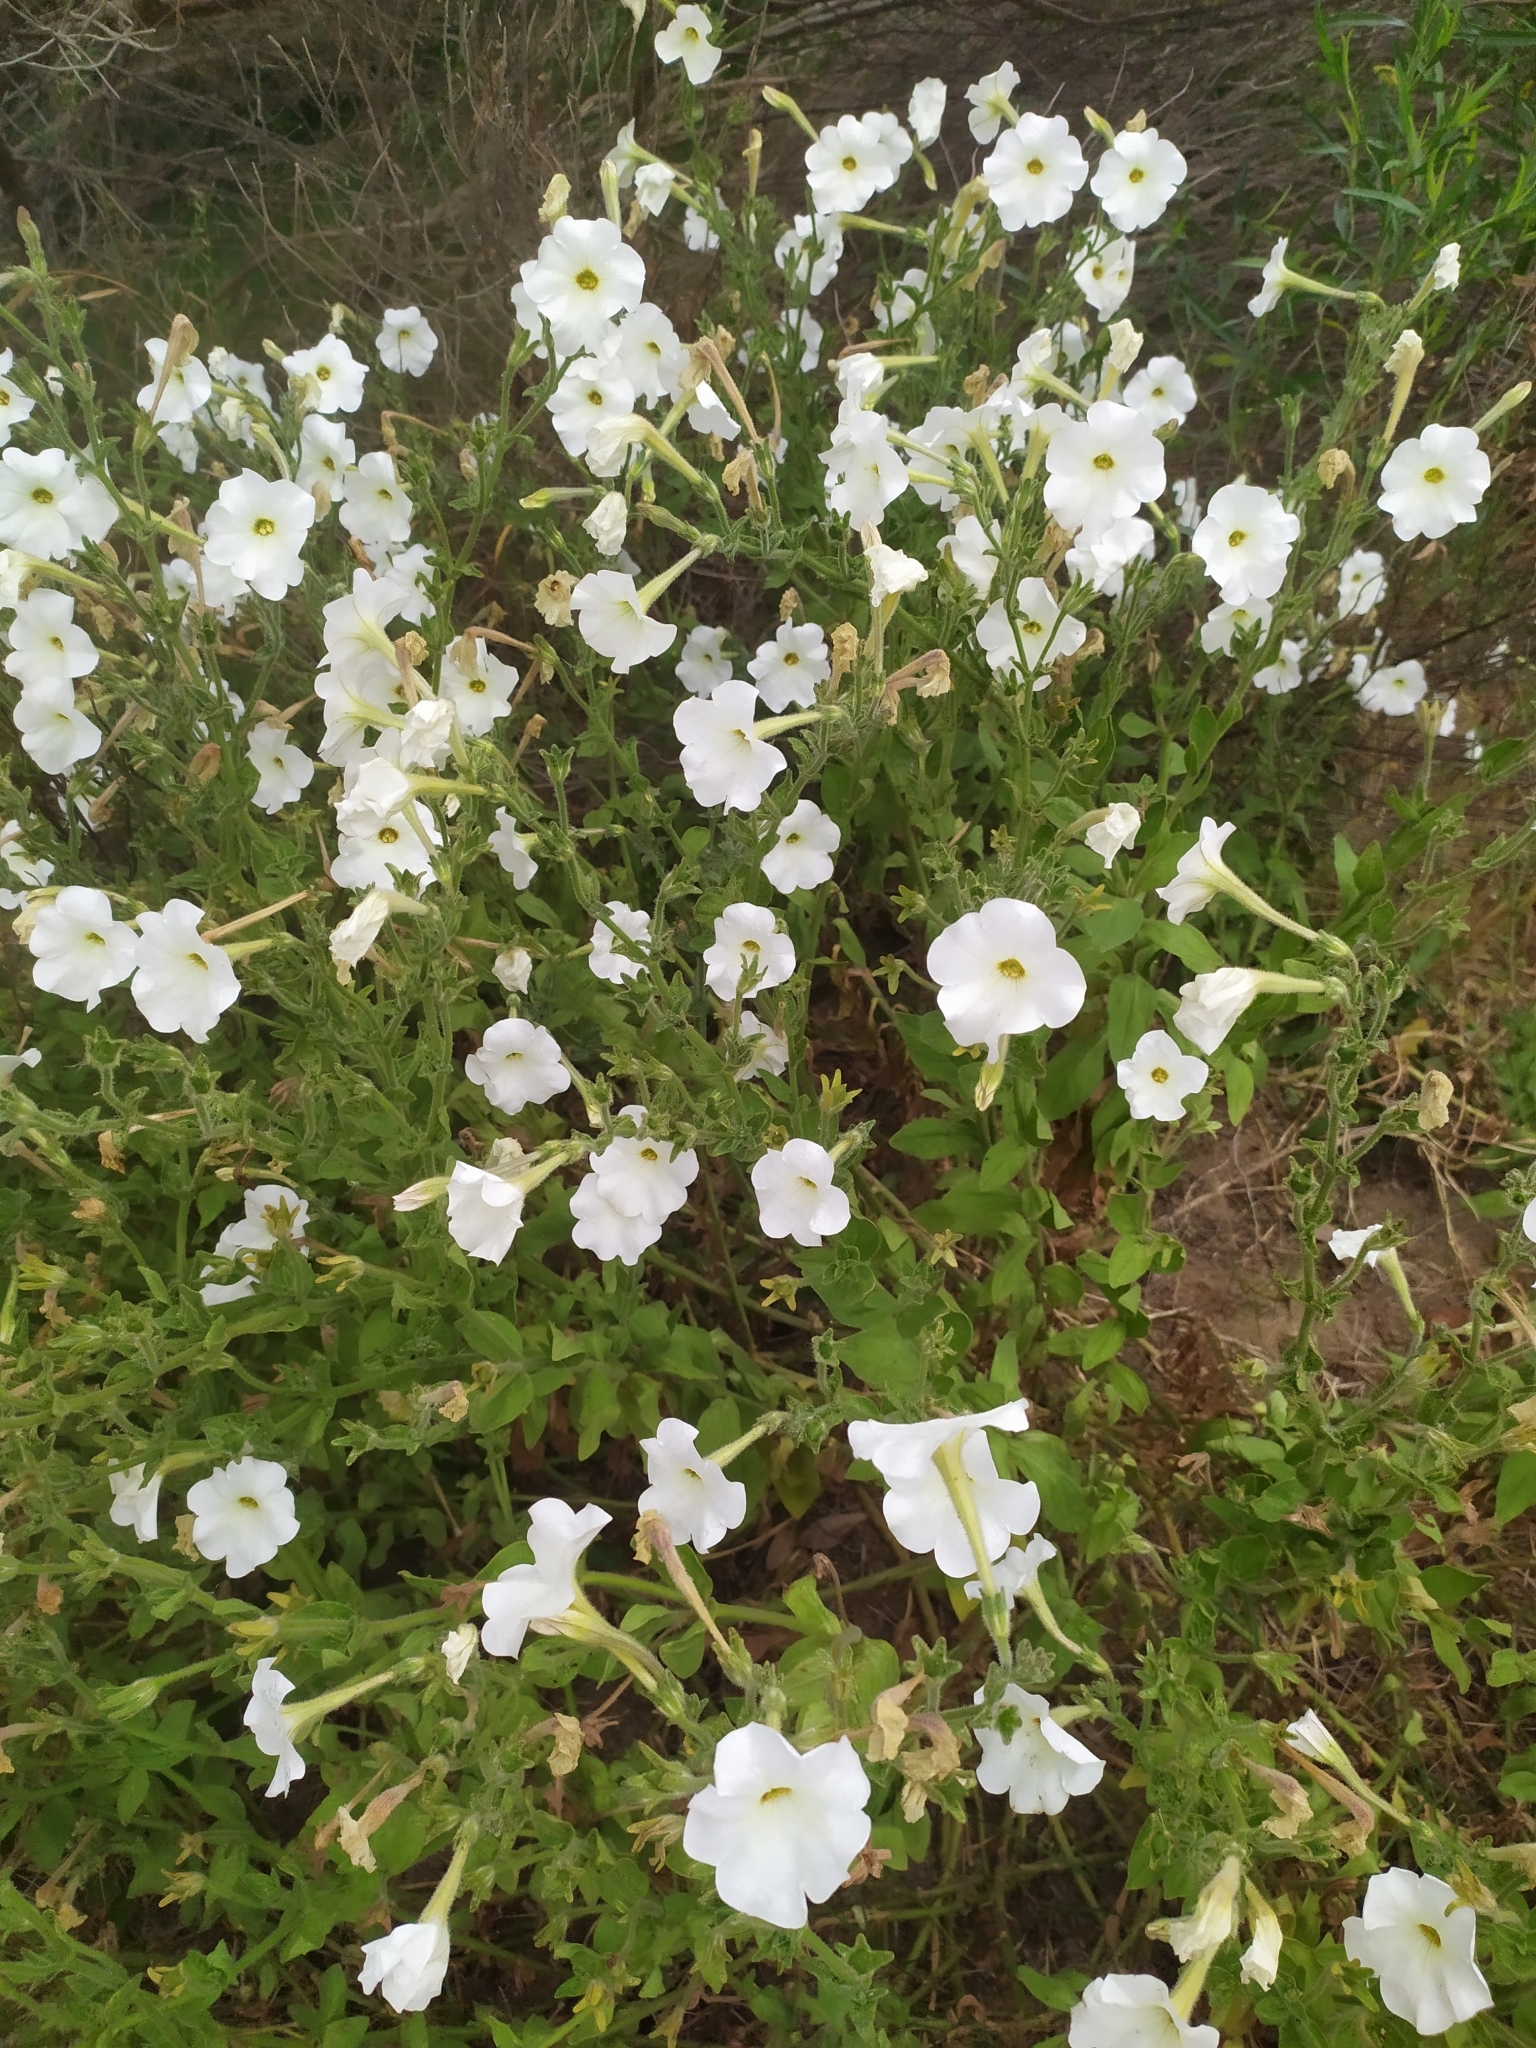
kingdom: Plantae
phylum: Tracheophyta
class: Magnoliopsida
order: Solanales
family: Solanaceae
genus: Petunia
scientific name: Petunia axillaris
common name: Large white petunia
